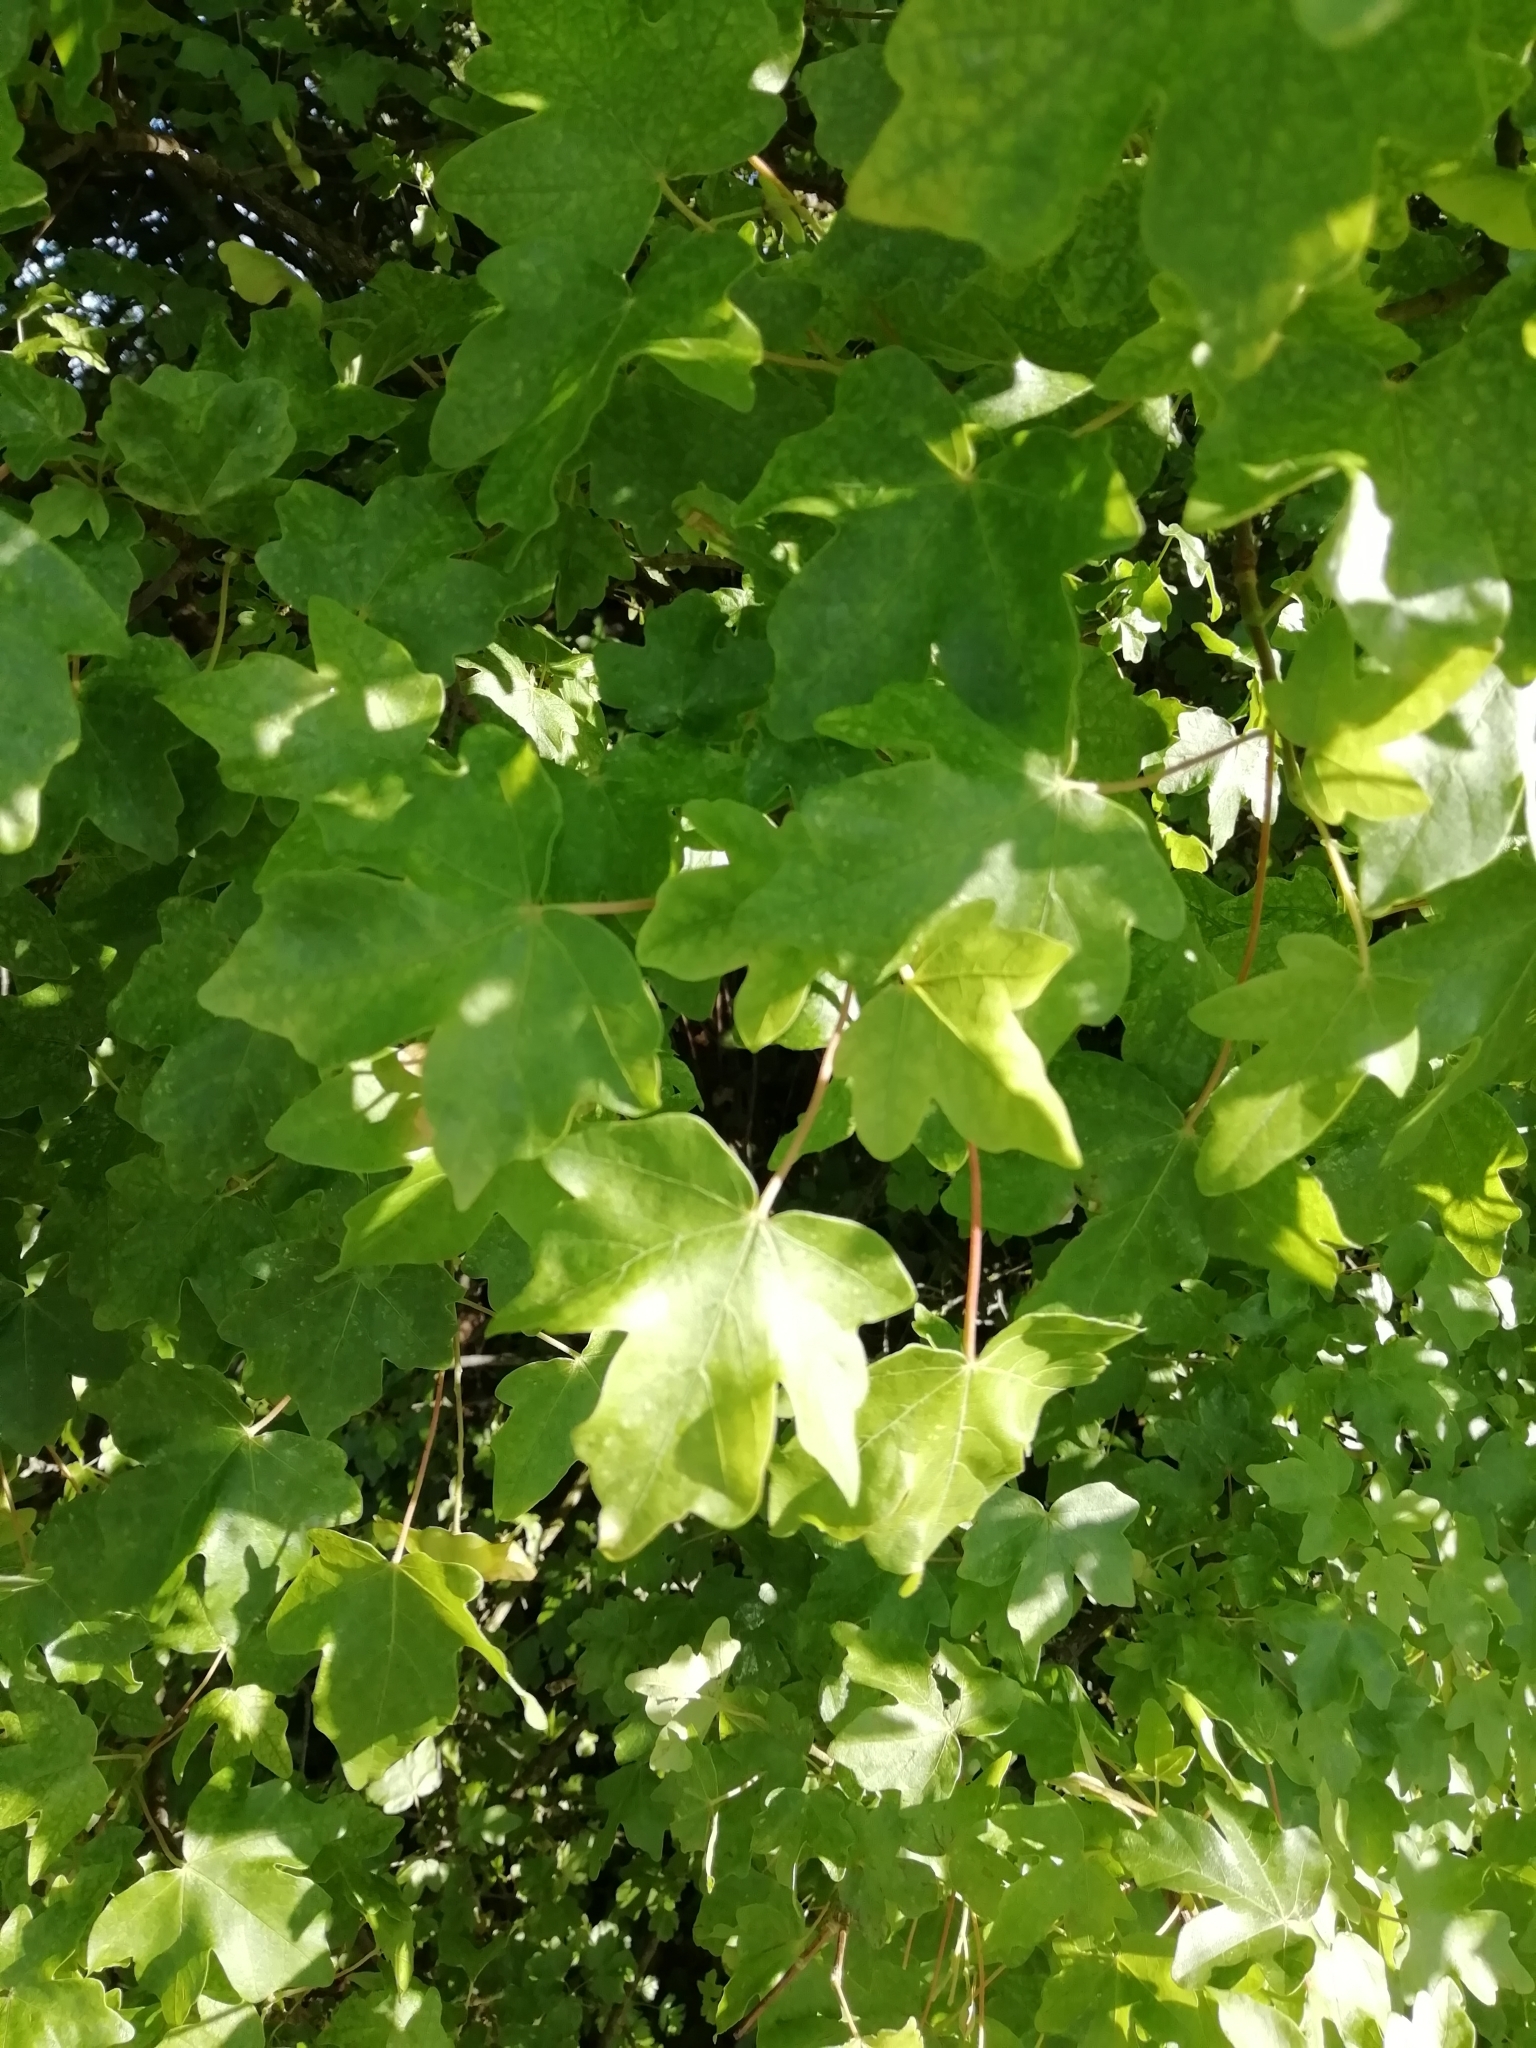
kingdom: Plantae
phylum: Tracheophyta
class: Magnoliopsida
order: Sapindales
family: Sapindaceae
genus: Acer
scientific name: Acer campestre
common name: Field maple
